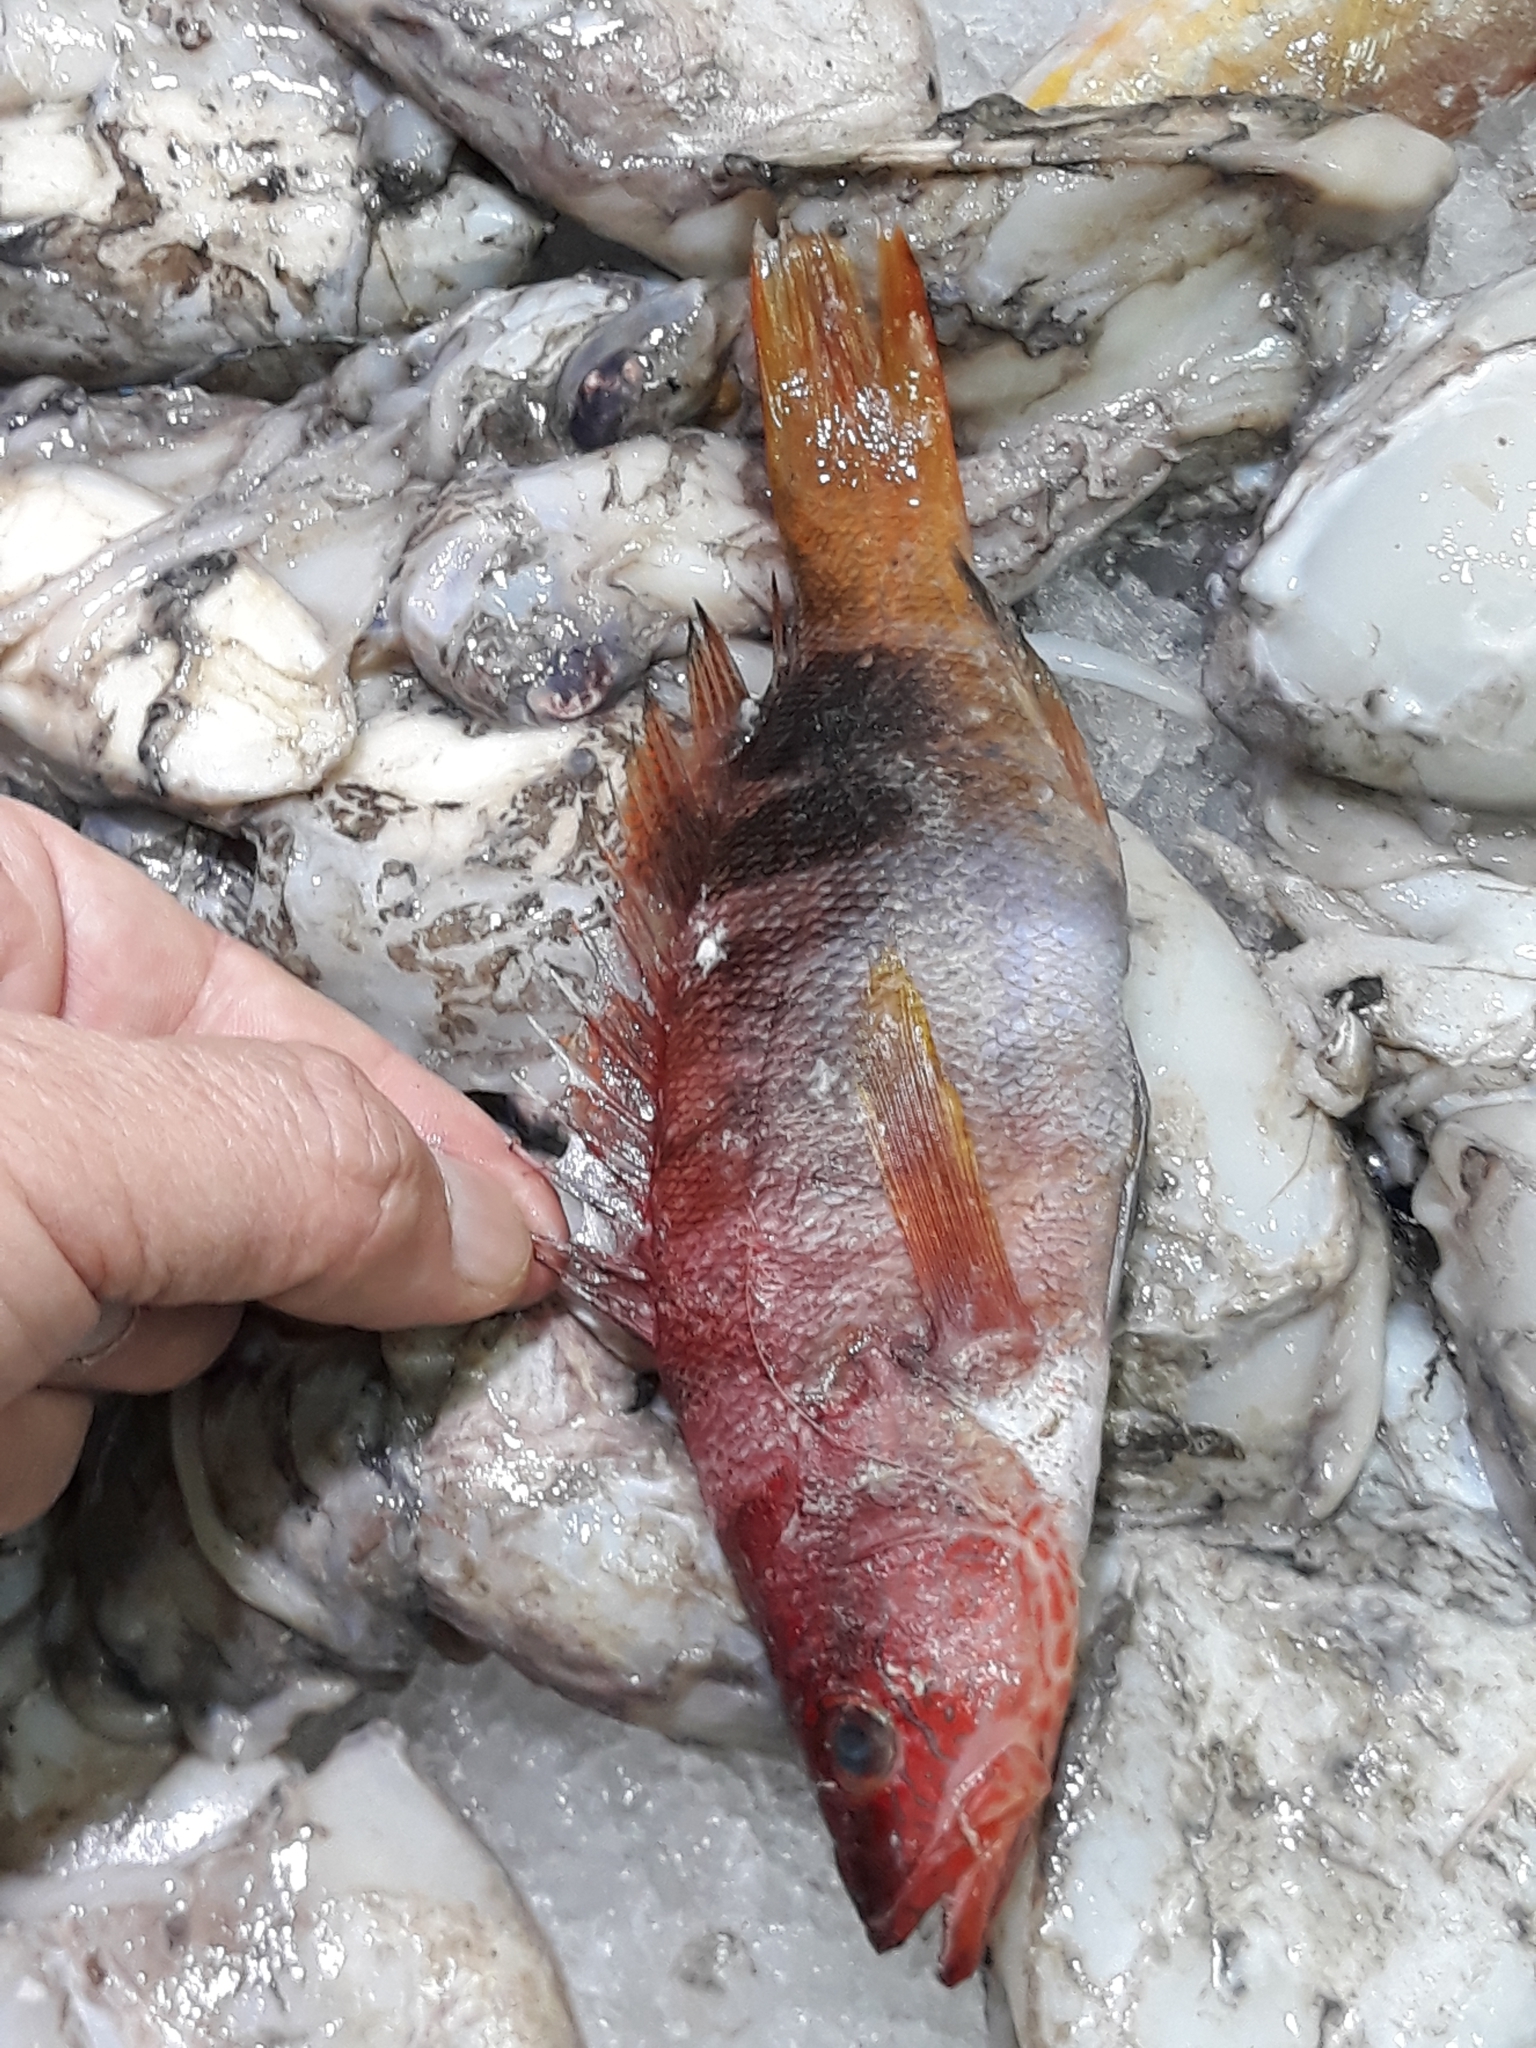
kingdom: Animalia
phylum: Chordata
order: Perciformes
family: Serranidae
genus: Serranus
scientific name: Serranus scriba
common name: Painted comber
